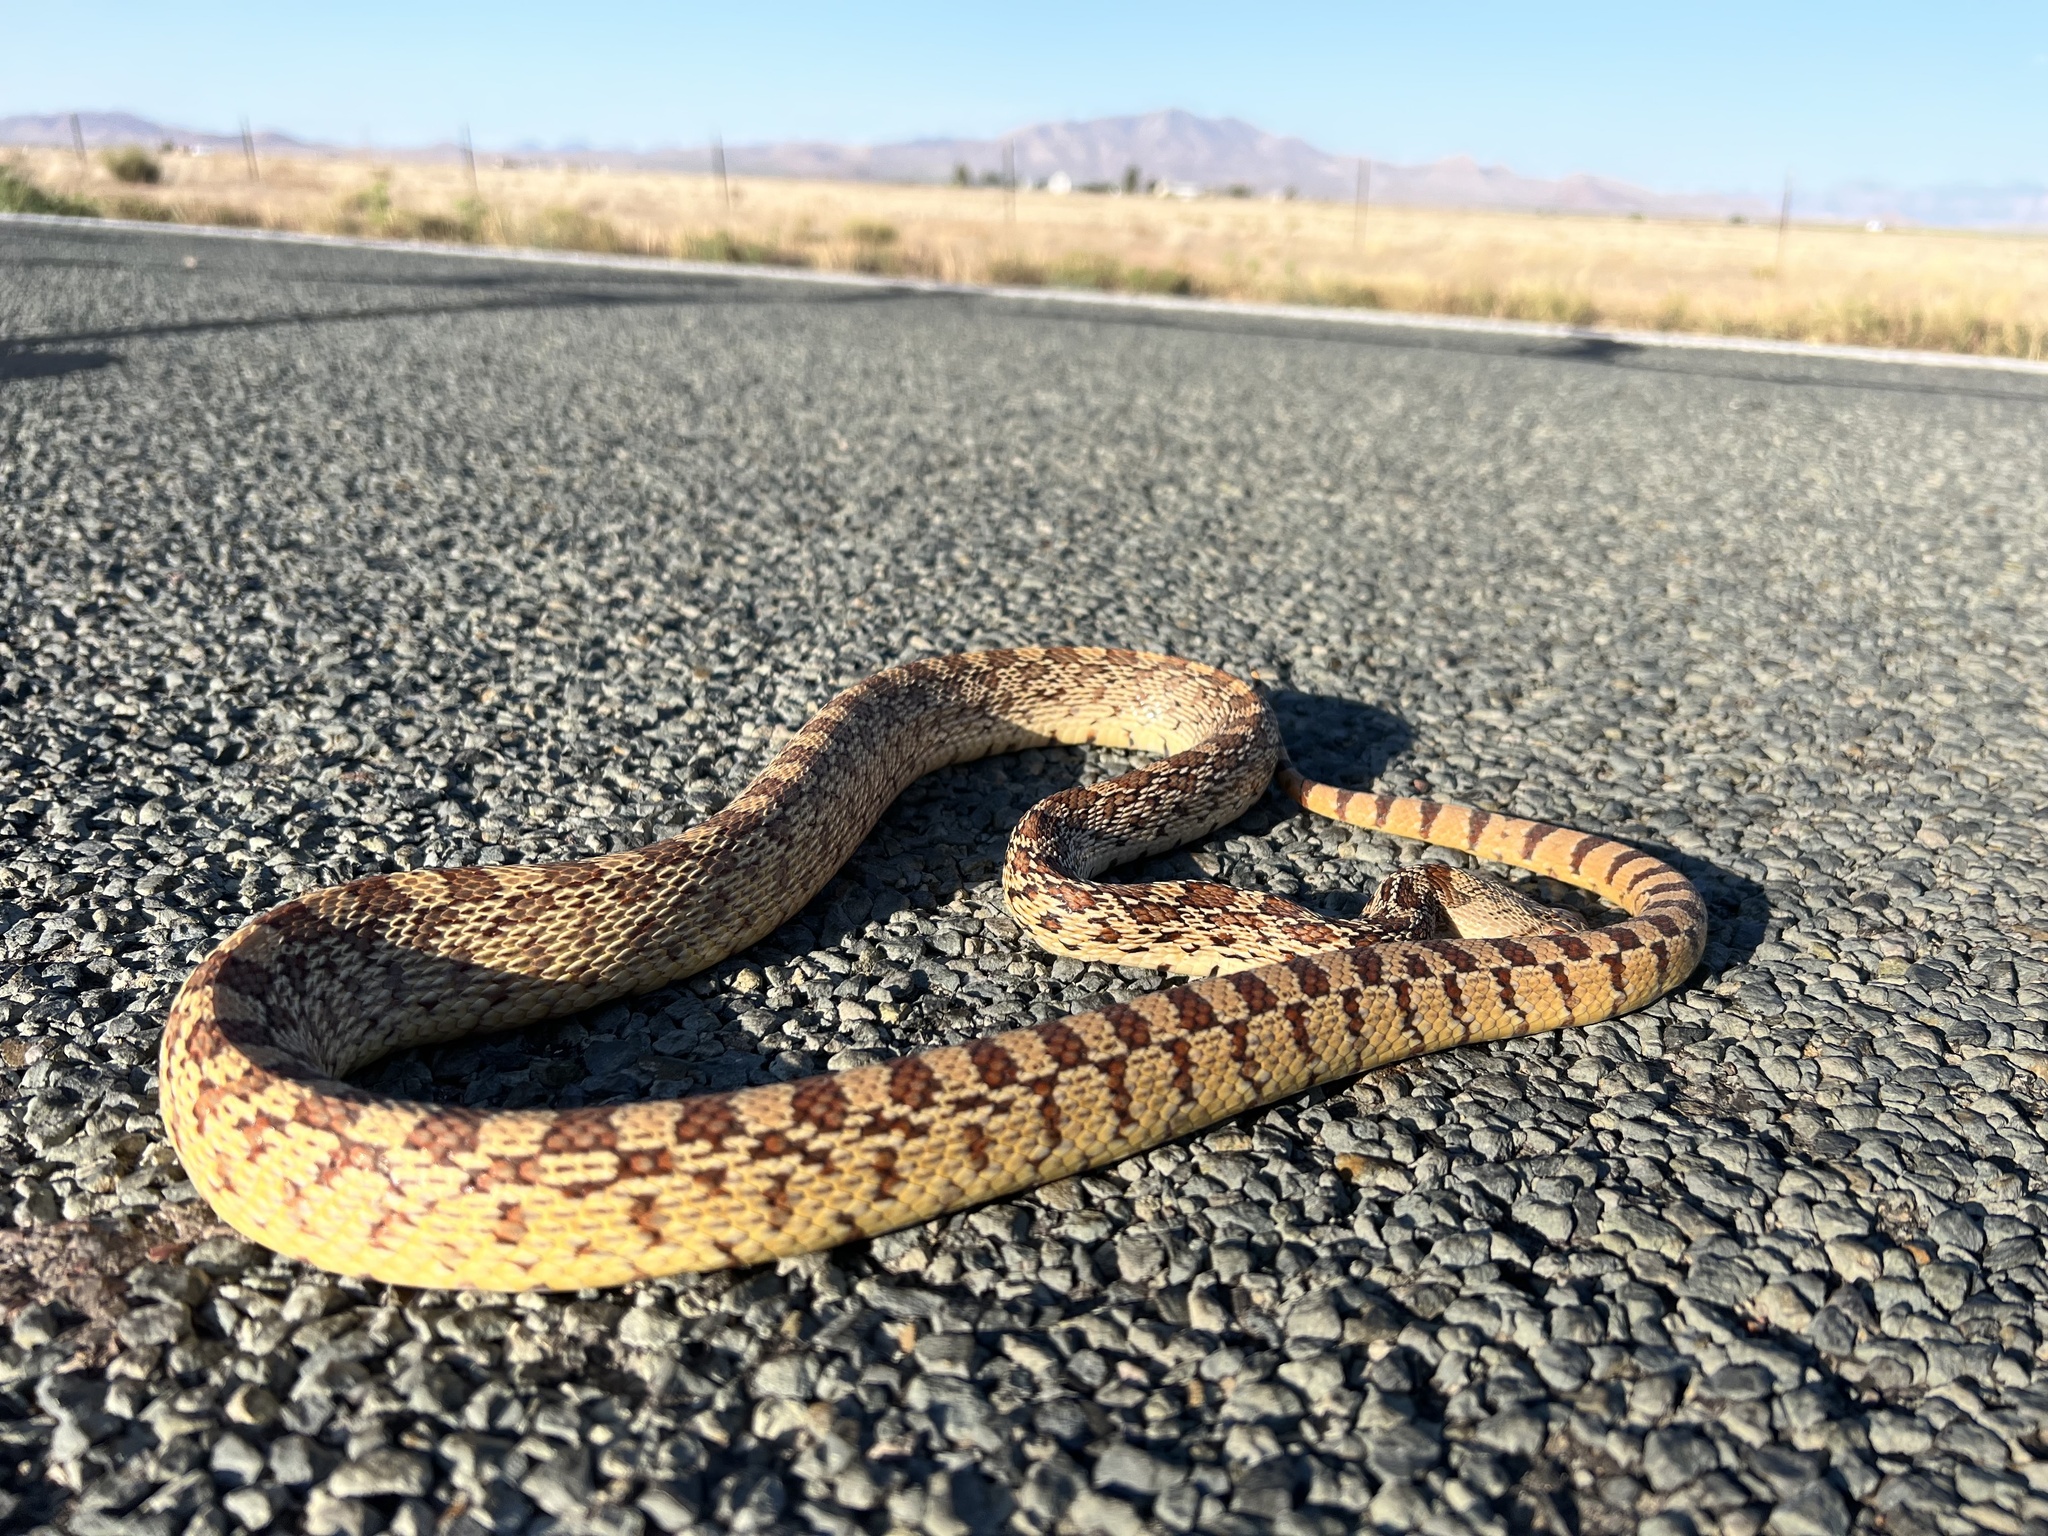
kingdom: Animalia
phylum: Chordata
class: Squamata
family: Colubridae
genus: Pituophis
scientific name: Pituophis catenifer
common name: Gopher snake
